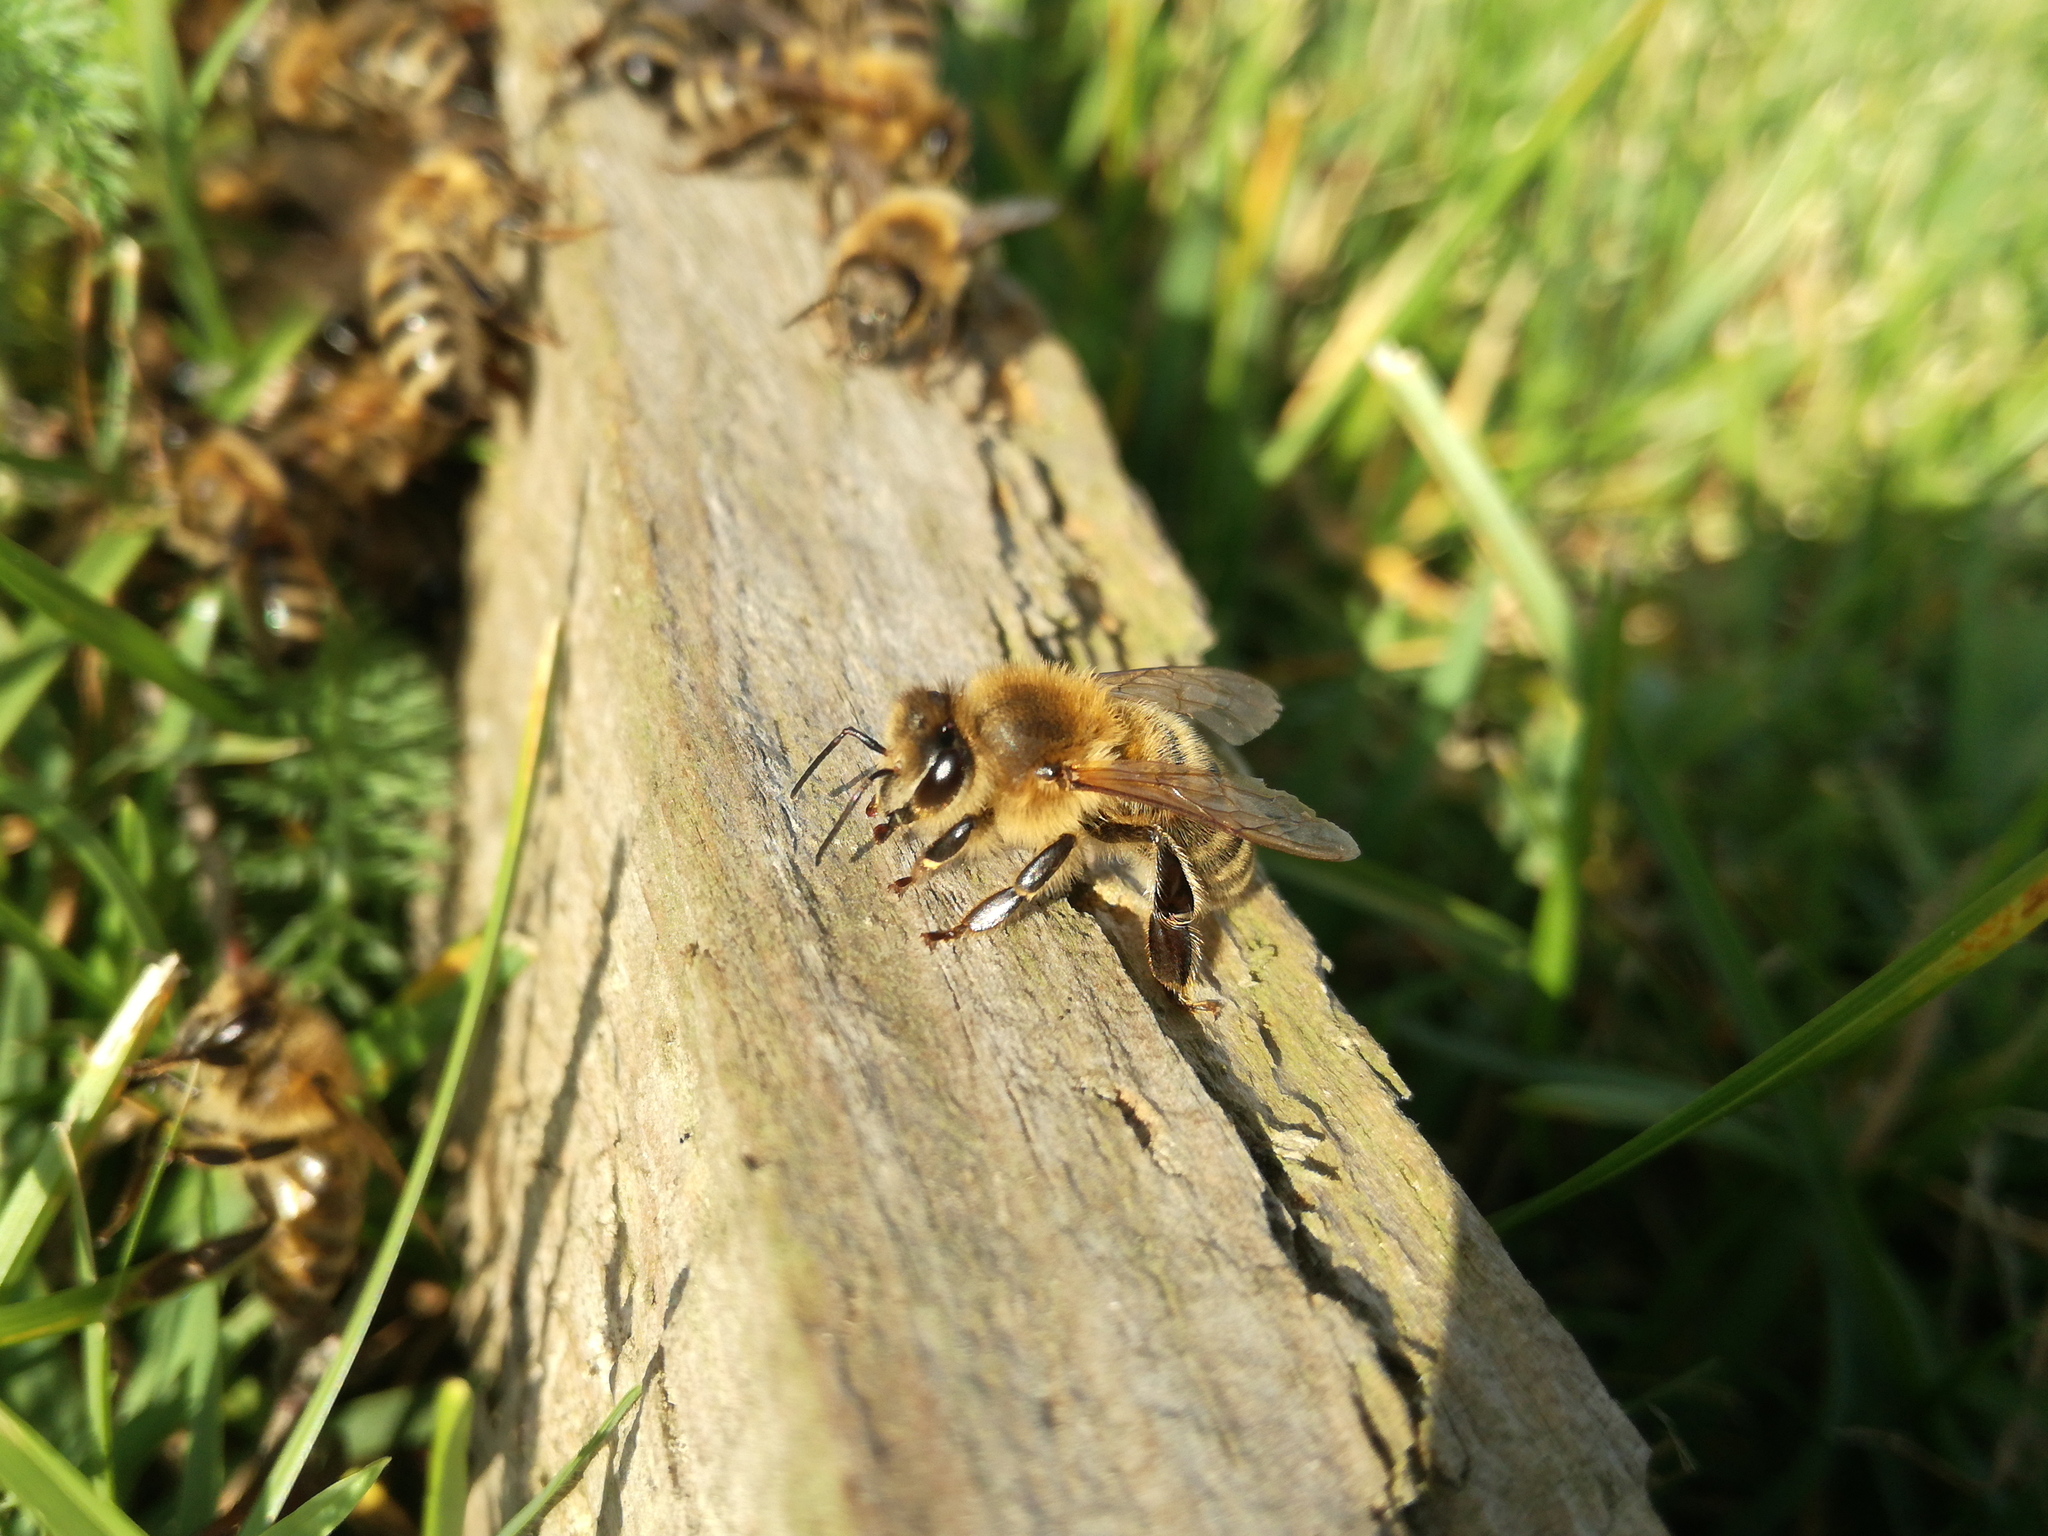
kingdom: Animalia
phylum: Arthropoda
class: Insecta
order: Hymenoptera
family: Apidae
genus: Apis
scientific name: Apis mellifera
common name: Honey bee
